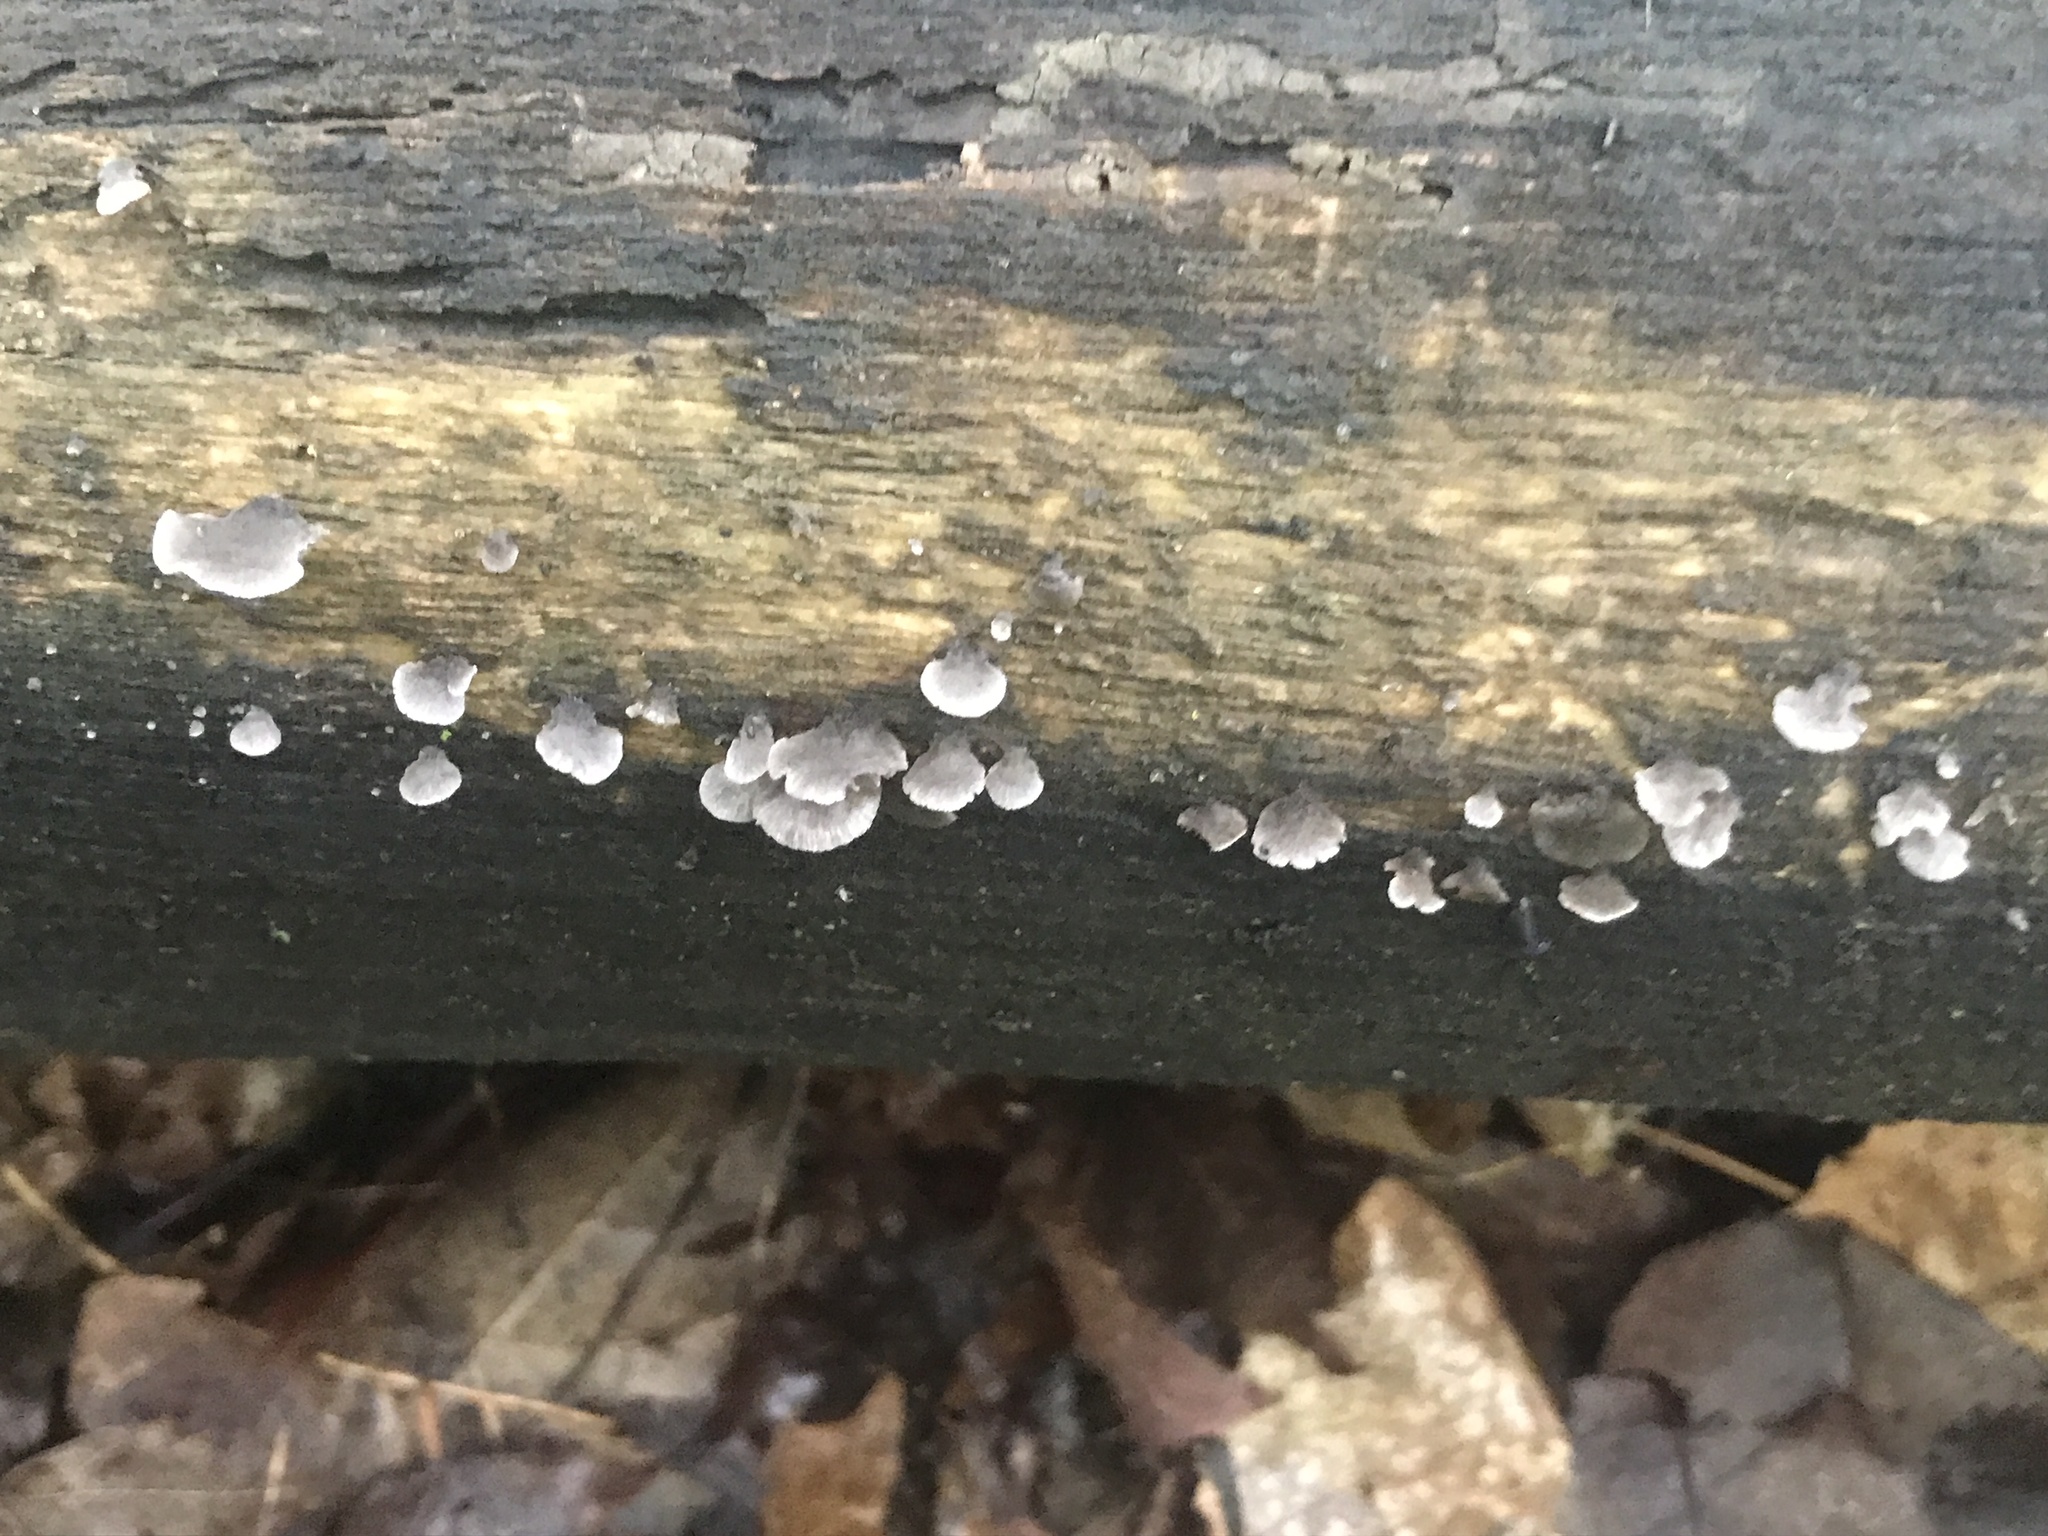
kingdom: Fungi
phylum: Basidiomycota
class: Agaricomycetes
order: Agaricales
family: Pleurotaceae
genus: Resupinatus
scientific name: Resupinatus alboniger
